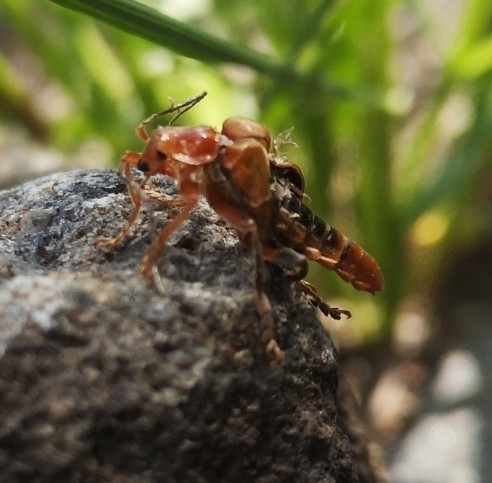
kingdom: Animalia
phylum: Arthropoda
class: Insecta
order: Coleoptera
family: Cantharidae
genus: Cantharis
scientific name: Cantharis livida
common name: Livid soldier beetle
